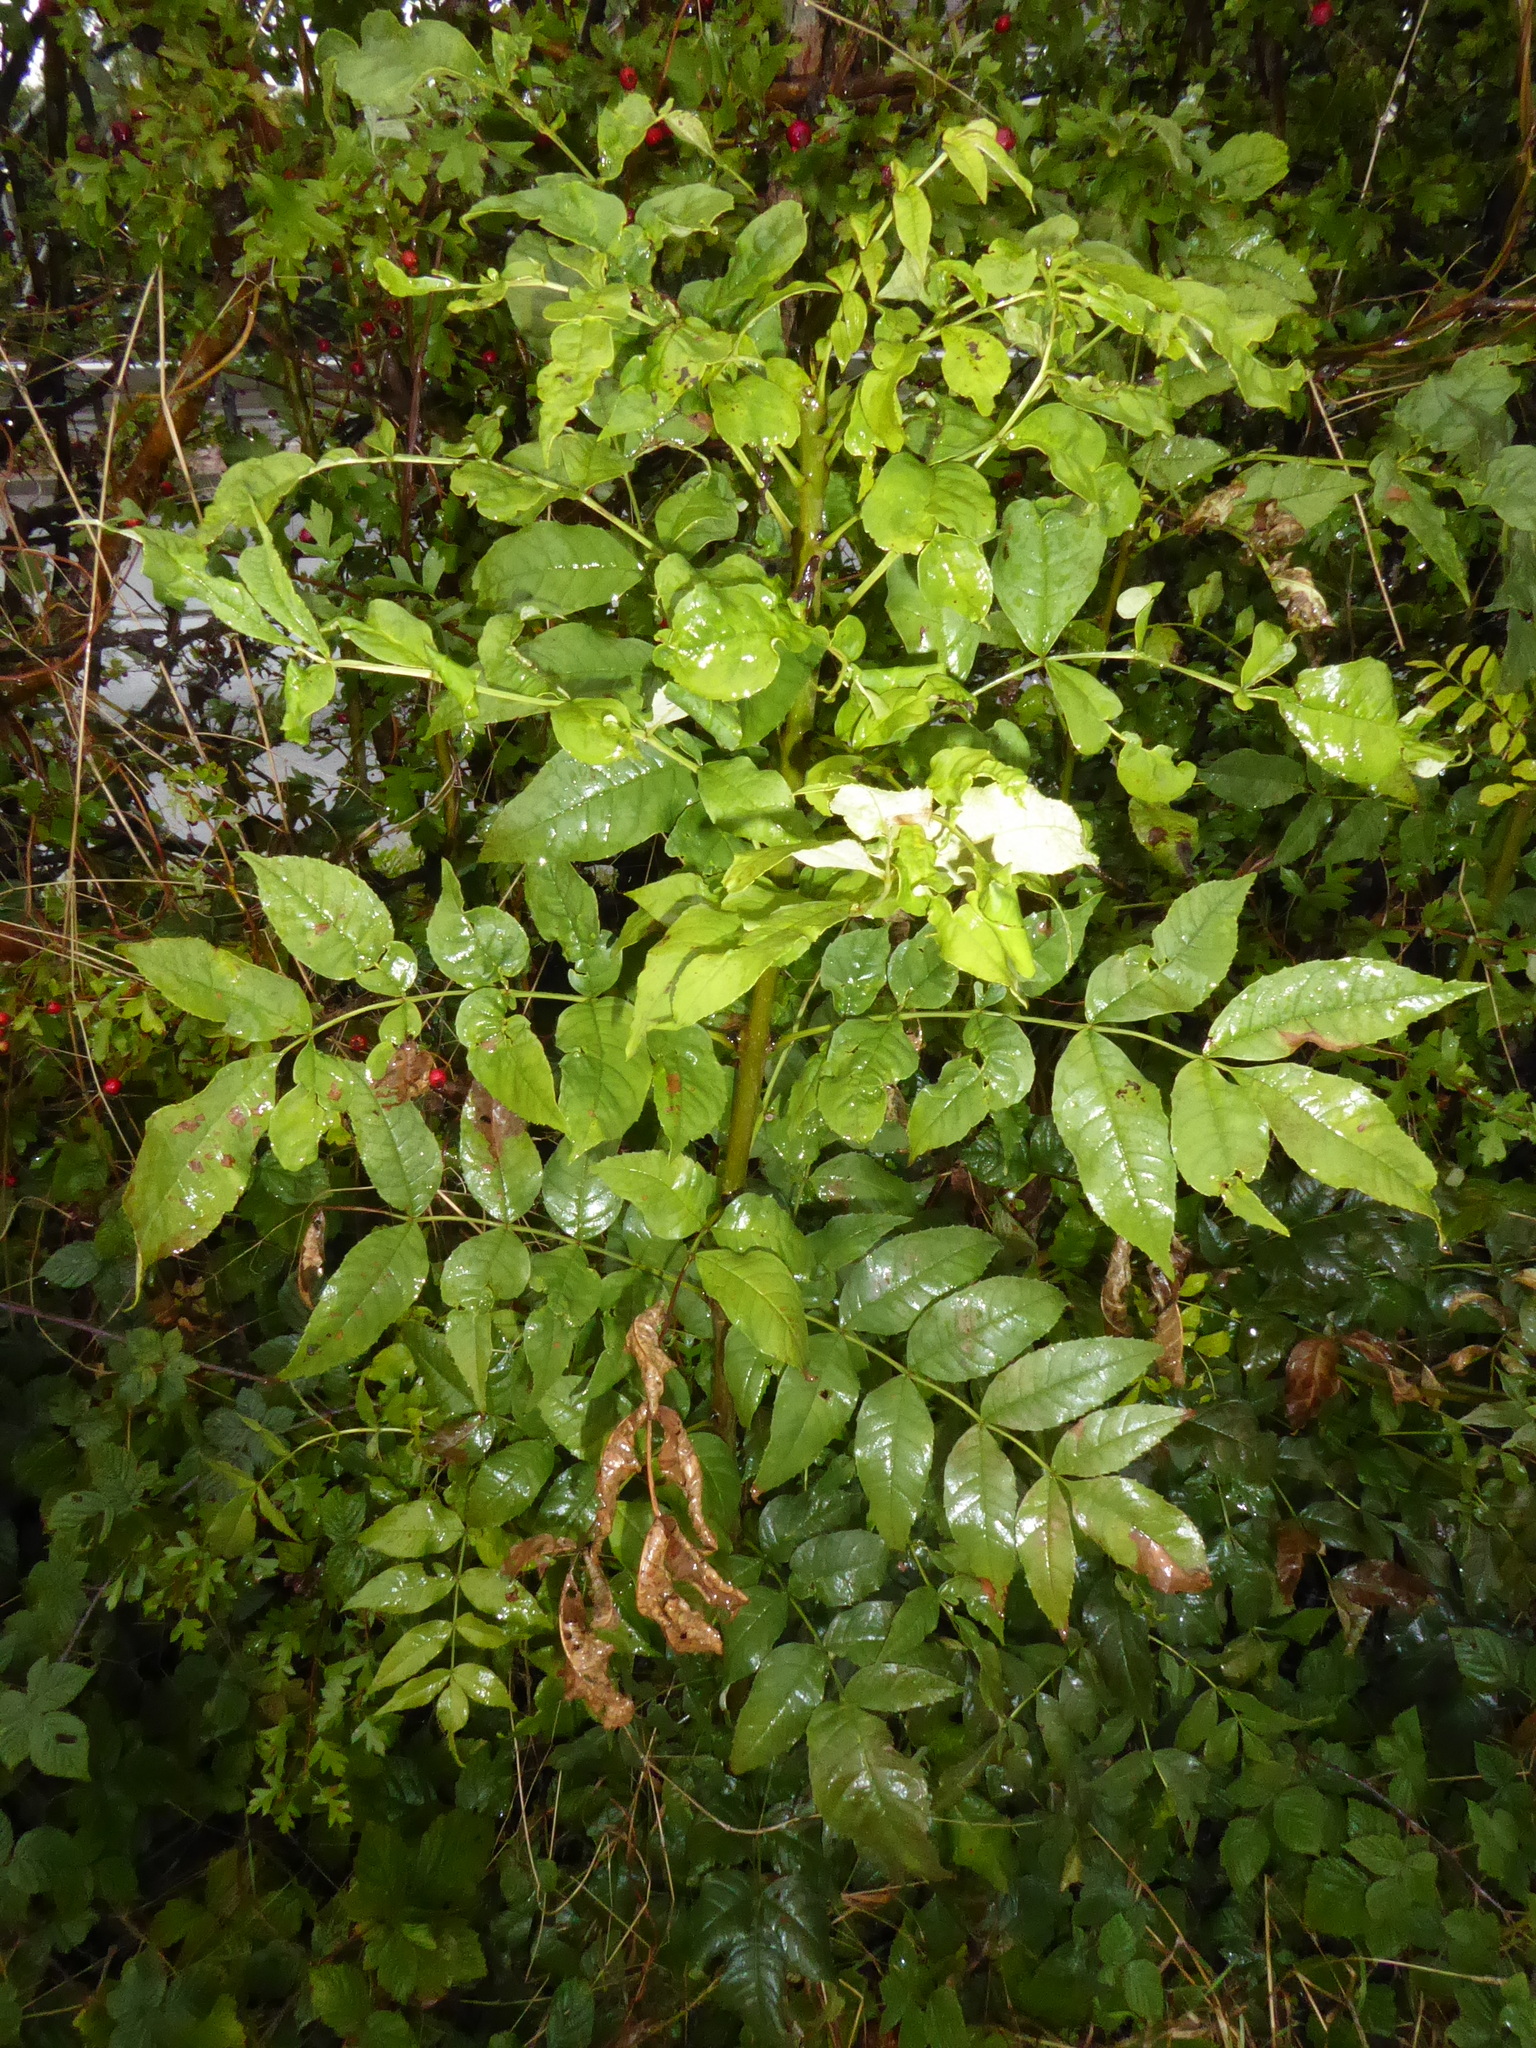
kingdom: Plantae
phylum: Tracheophyta
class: Magnoliopsida
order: Lamiales
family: Oleaceae
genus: Fraxinus
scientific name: Fraxinus excelsior
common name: European ash
